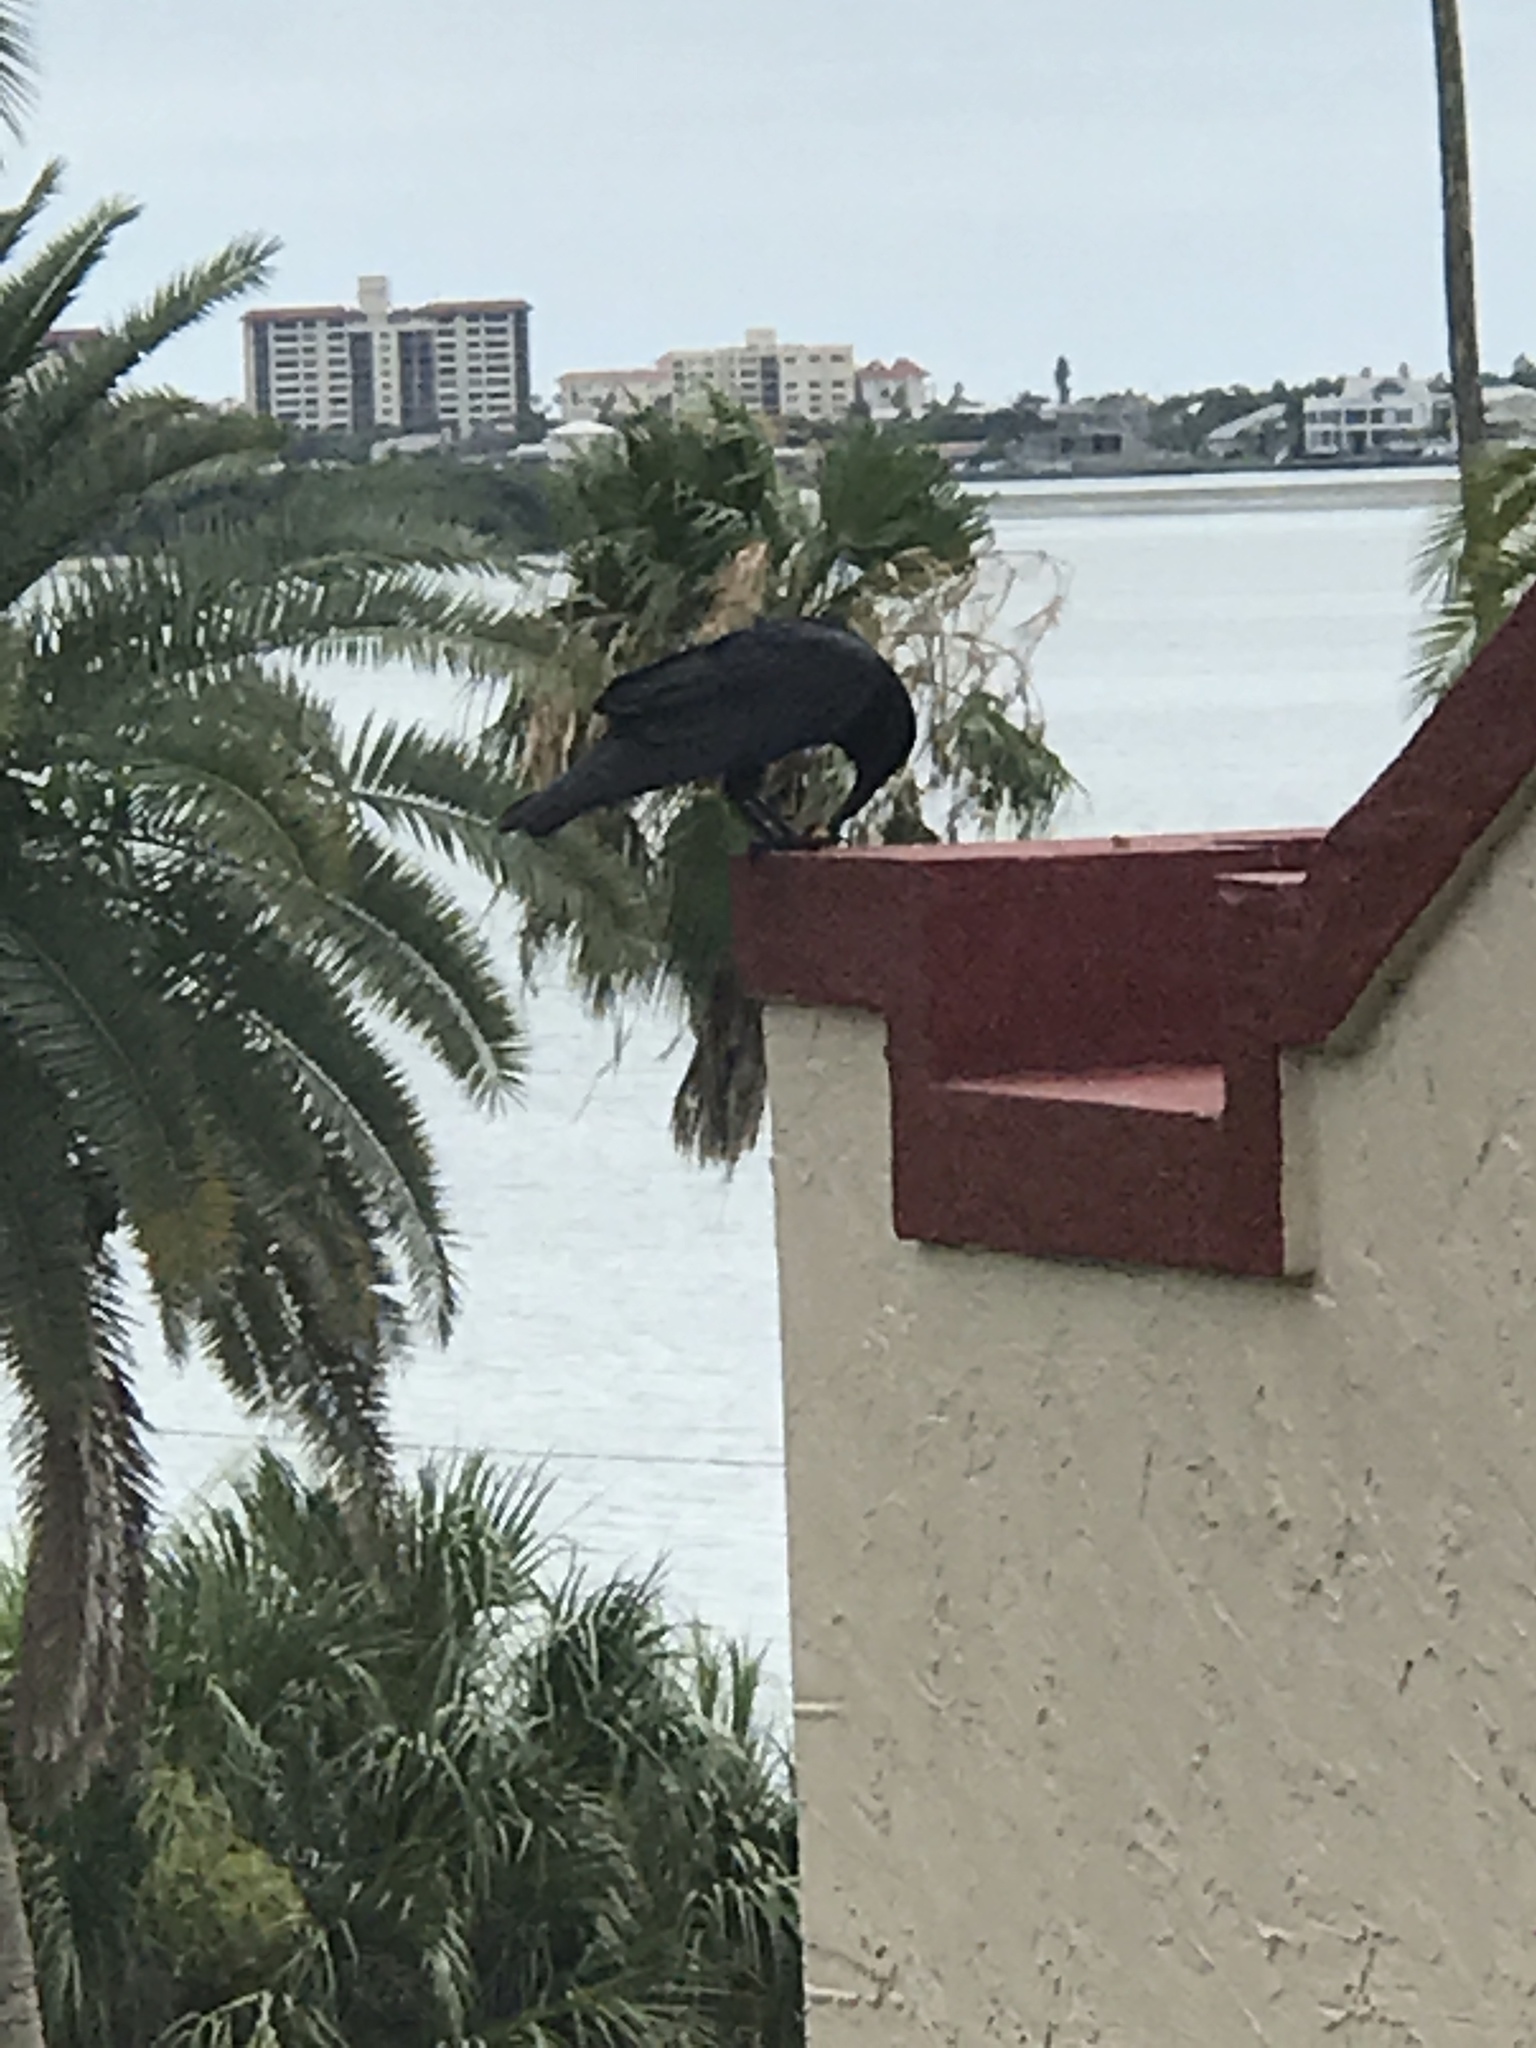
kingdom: Animalia
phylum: Chordata
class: Aves
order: Passeriformes
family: Corvidae
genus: Corvus
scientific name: Corvus ossifragus
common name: Fish crow
